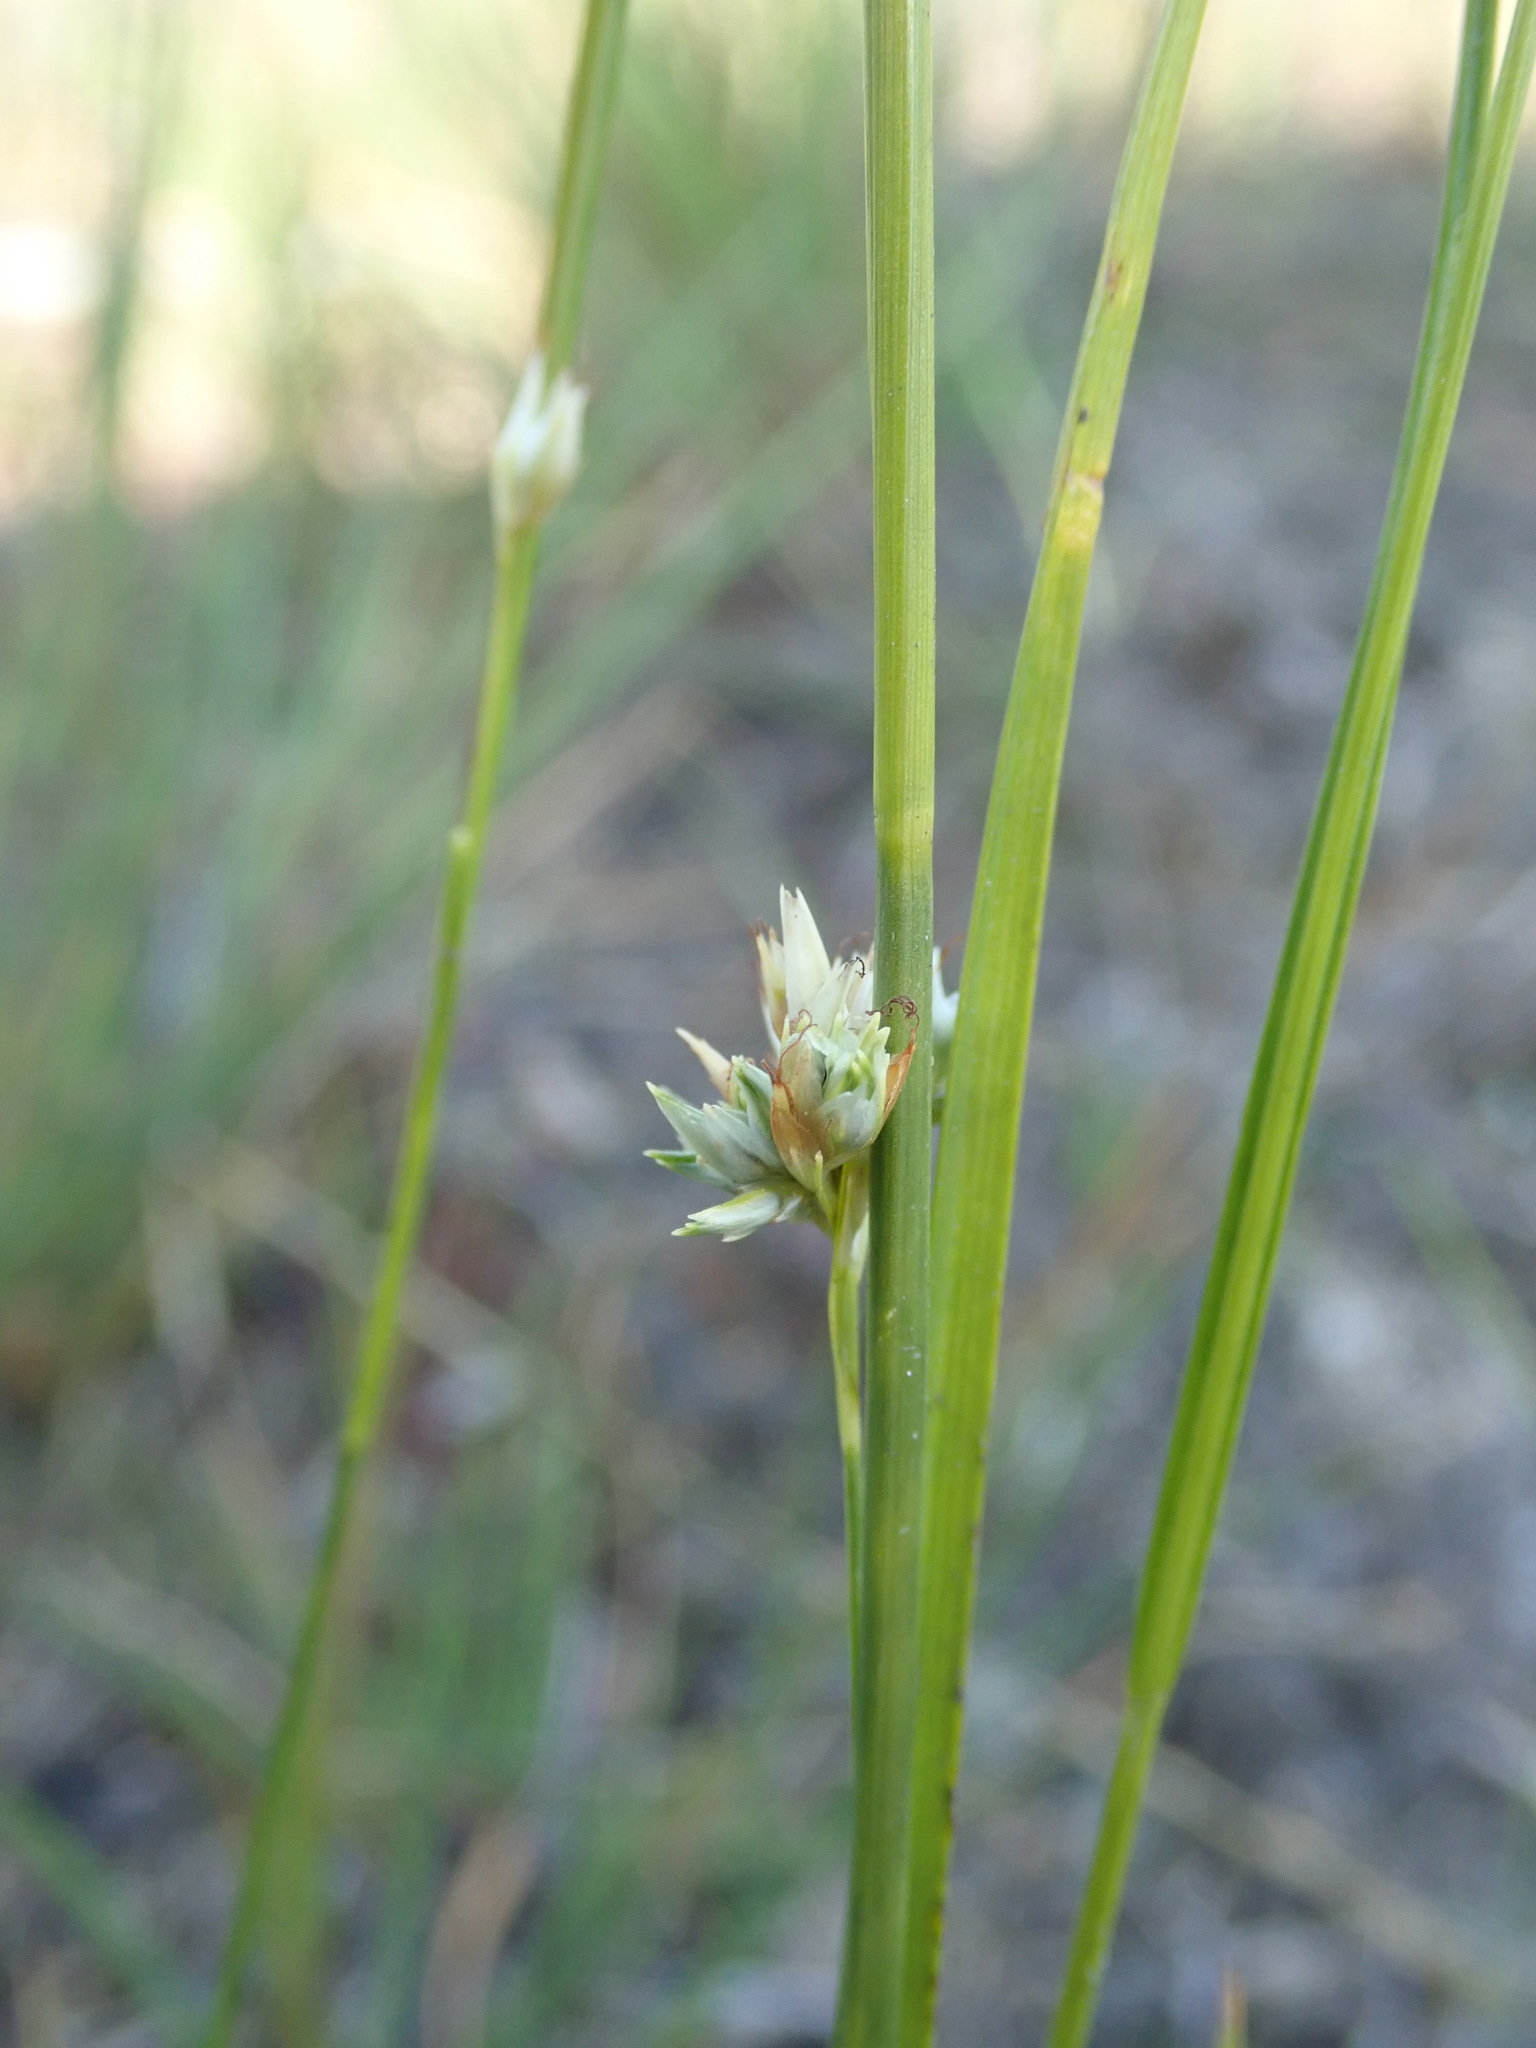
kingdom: Plantae
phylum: Tracheophyta
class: Liliopsida
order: Poales
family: Cyperaceae
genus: Rhynchospora
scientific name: Rhynchospora alba
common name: White beak-sedge
